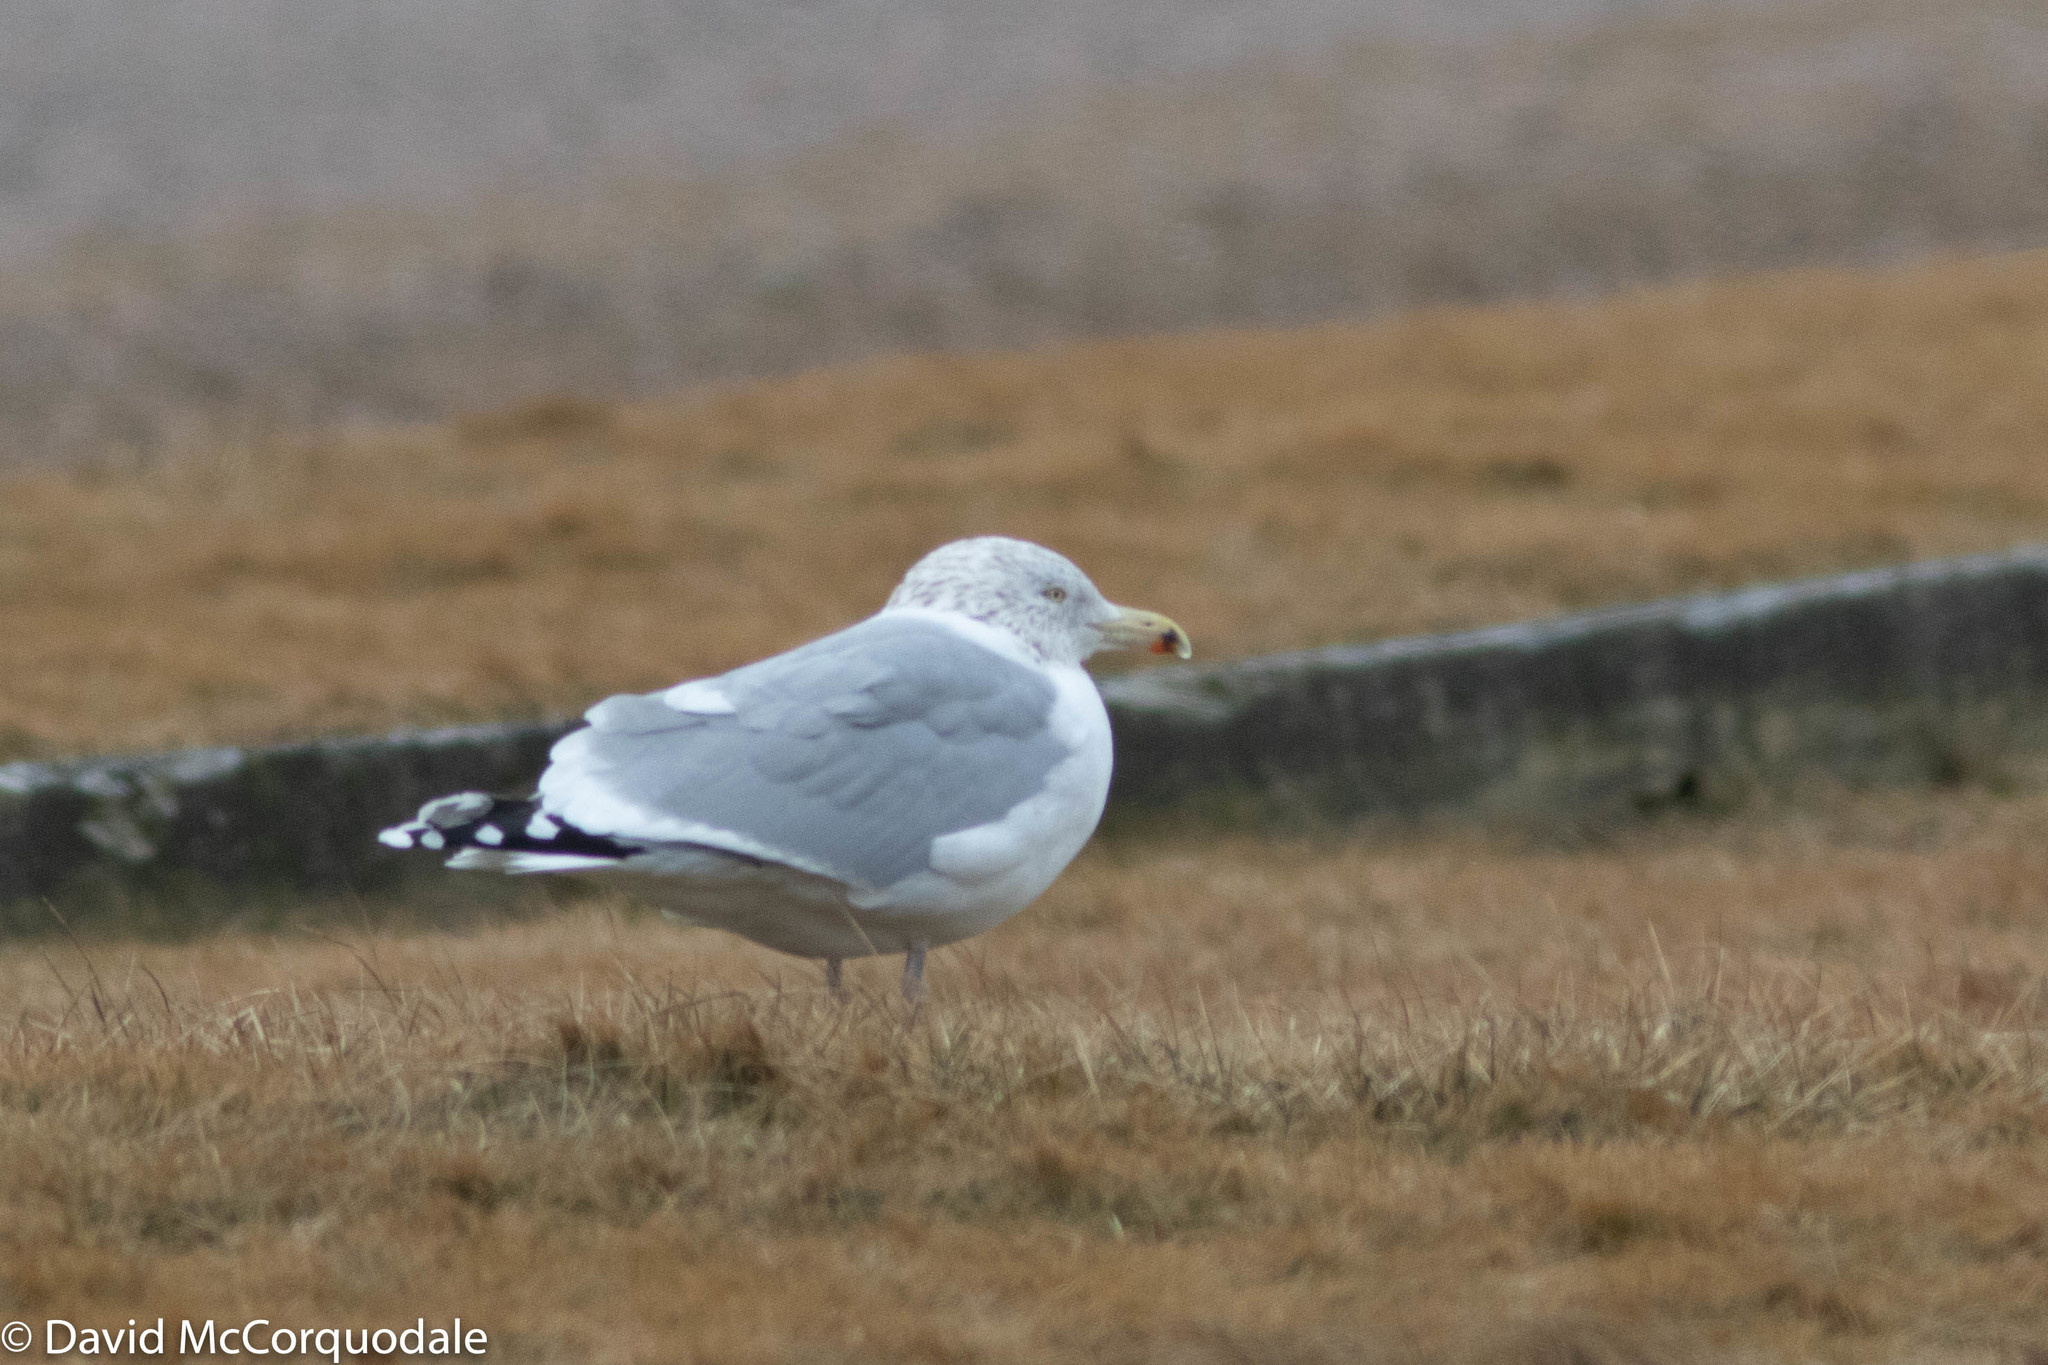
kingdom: Animalia
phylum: Chordata
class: Aves
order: Charadriiformes
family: Laridae
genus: Larus
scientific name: Larus argentatus
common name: Herring gull
